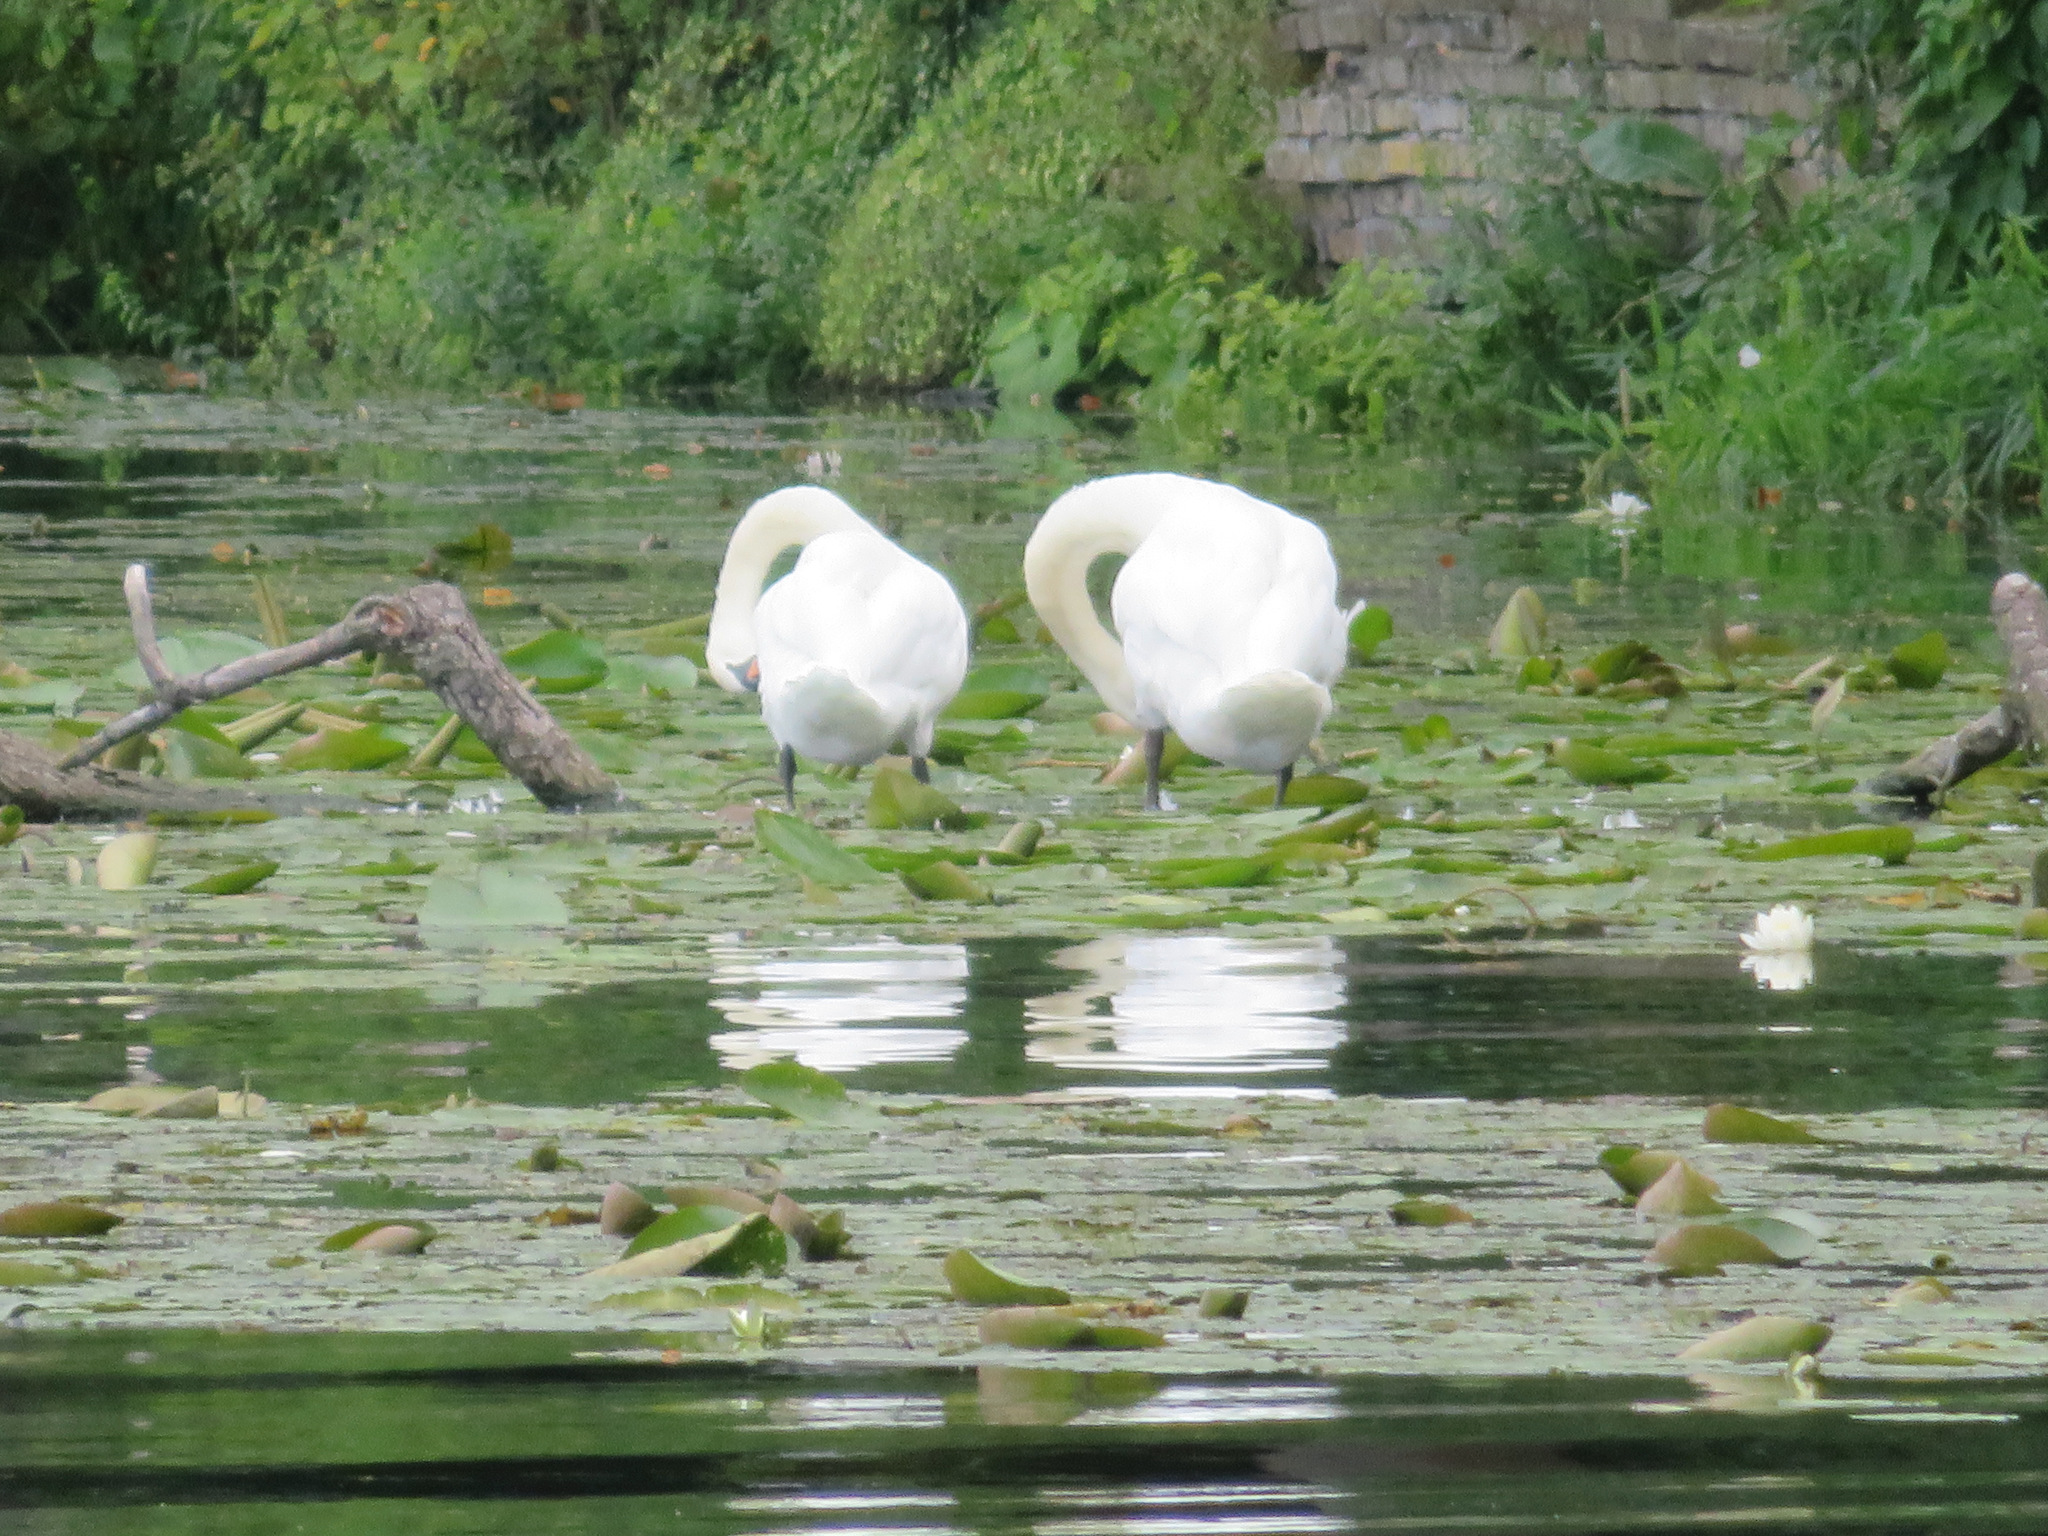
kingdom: Animalia
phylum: Chordata
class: Aves
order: Anseriformes
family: Anatidae
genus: Cygnus
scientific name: Cygnus olor
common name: Mute swan
